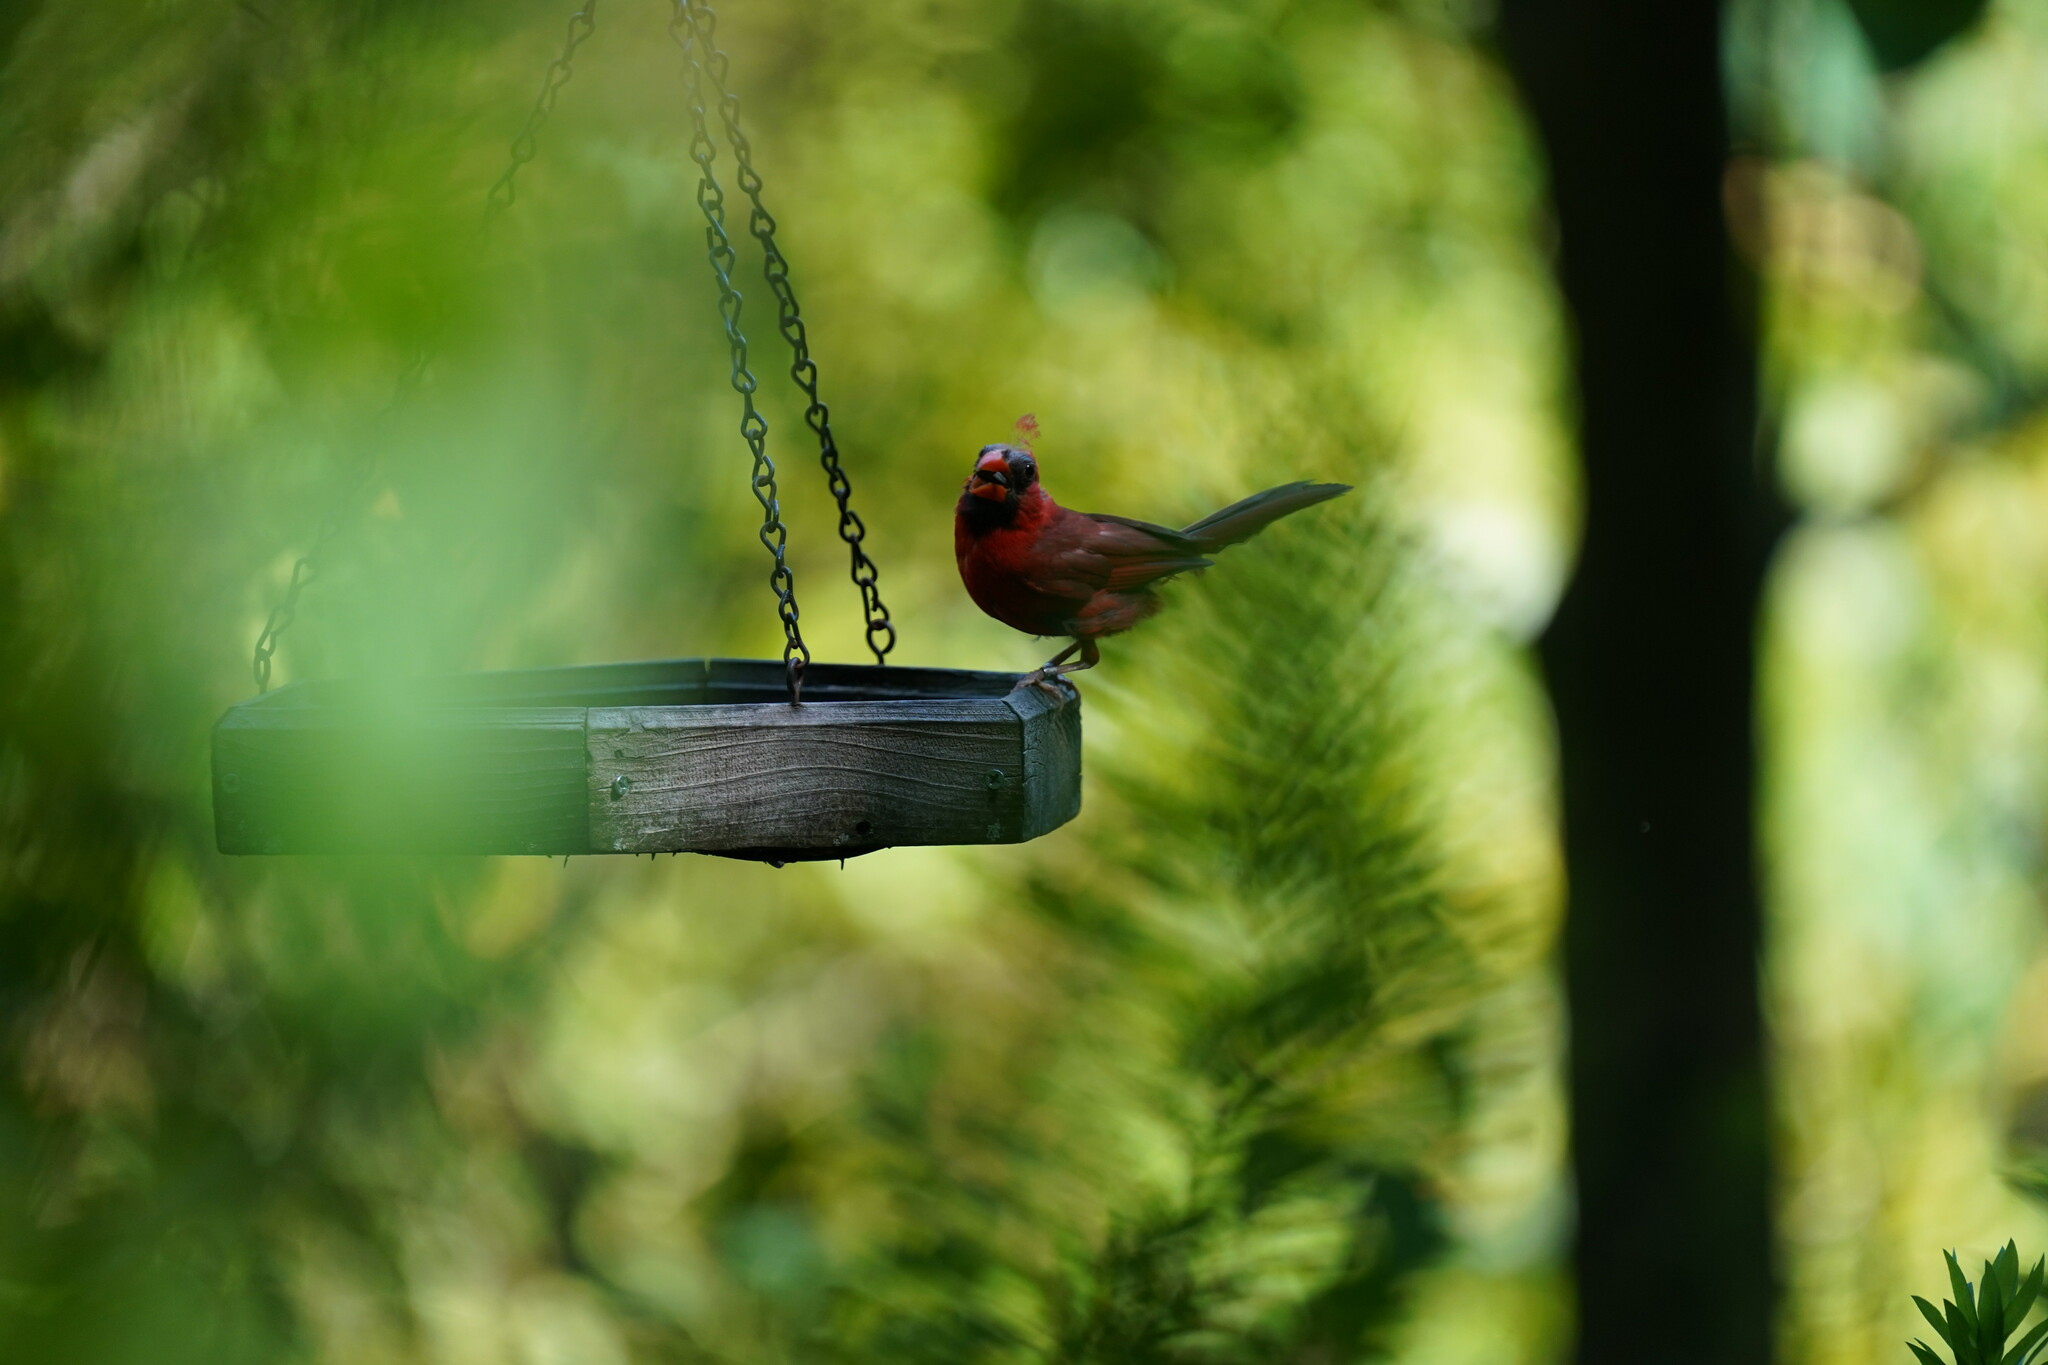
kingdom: Animalia
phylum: Chordata
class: Aves
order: Passeriformes
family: Cardinalidae
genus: Cardinalis
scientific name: Cardinalis cardinalis
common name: Northern cardinal
